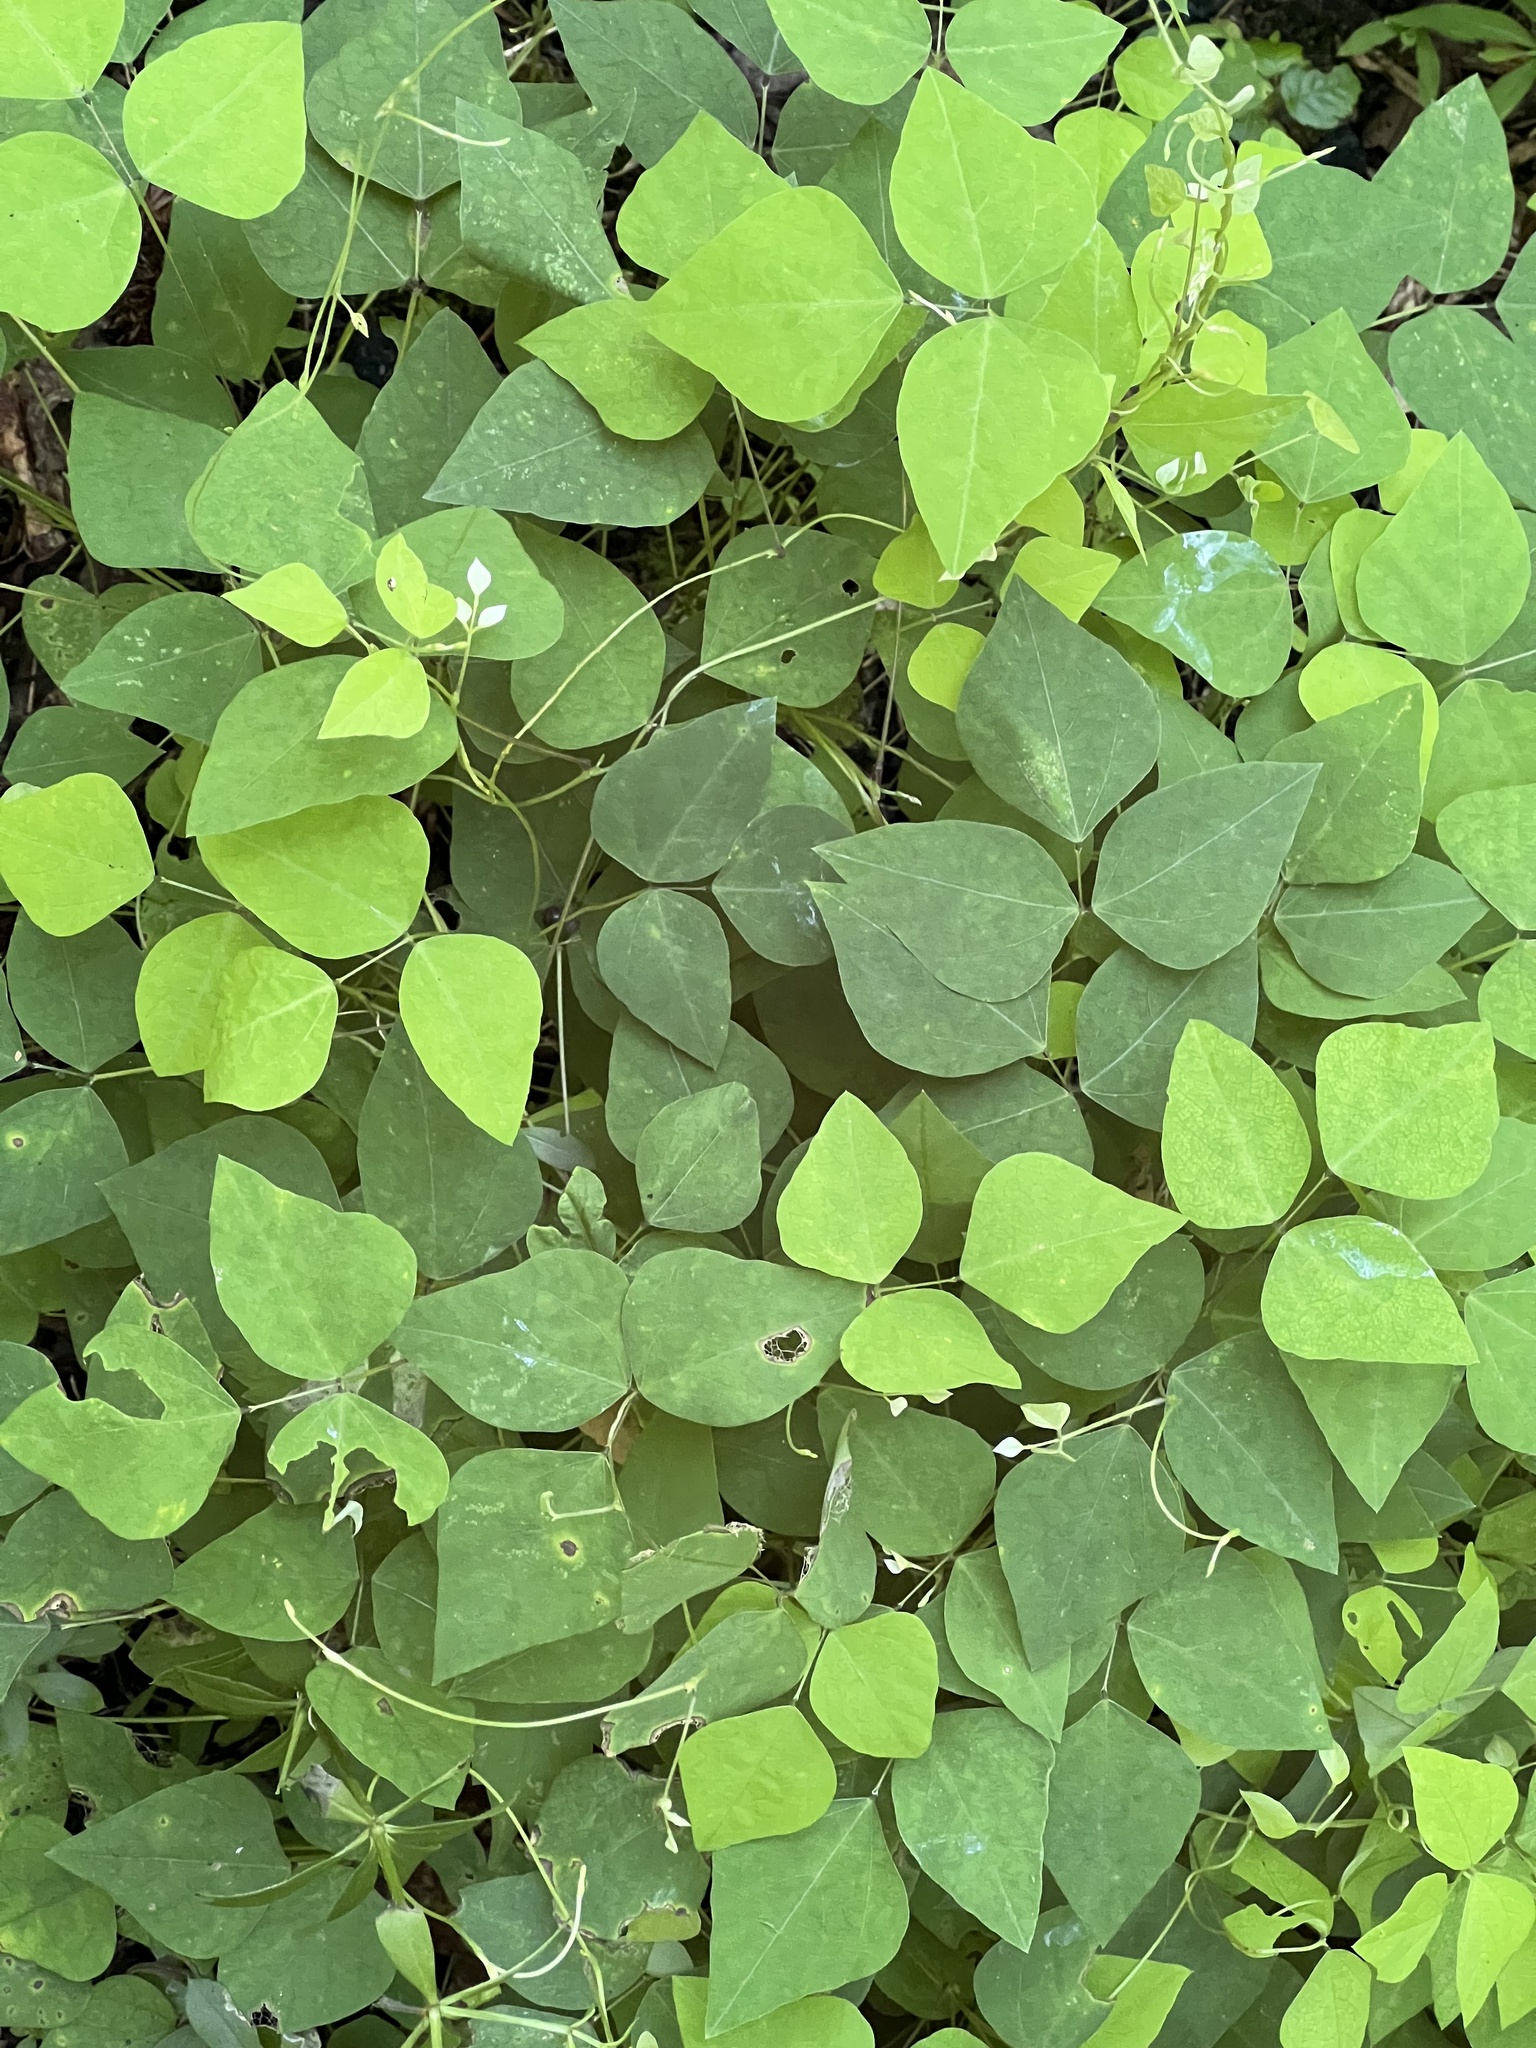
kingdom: Plantae
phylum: Tracheophyta
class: Magnoliopsida
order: Fabales
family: Fabaceae
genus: Amphicarpaea
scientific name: Amphicarpaea bracteata
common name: American hog peanut
